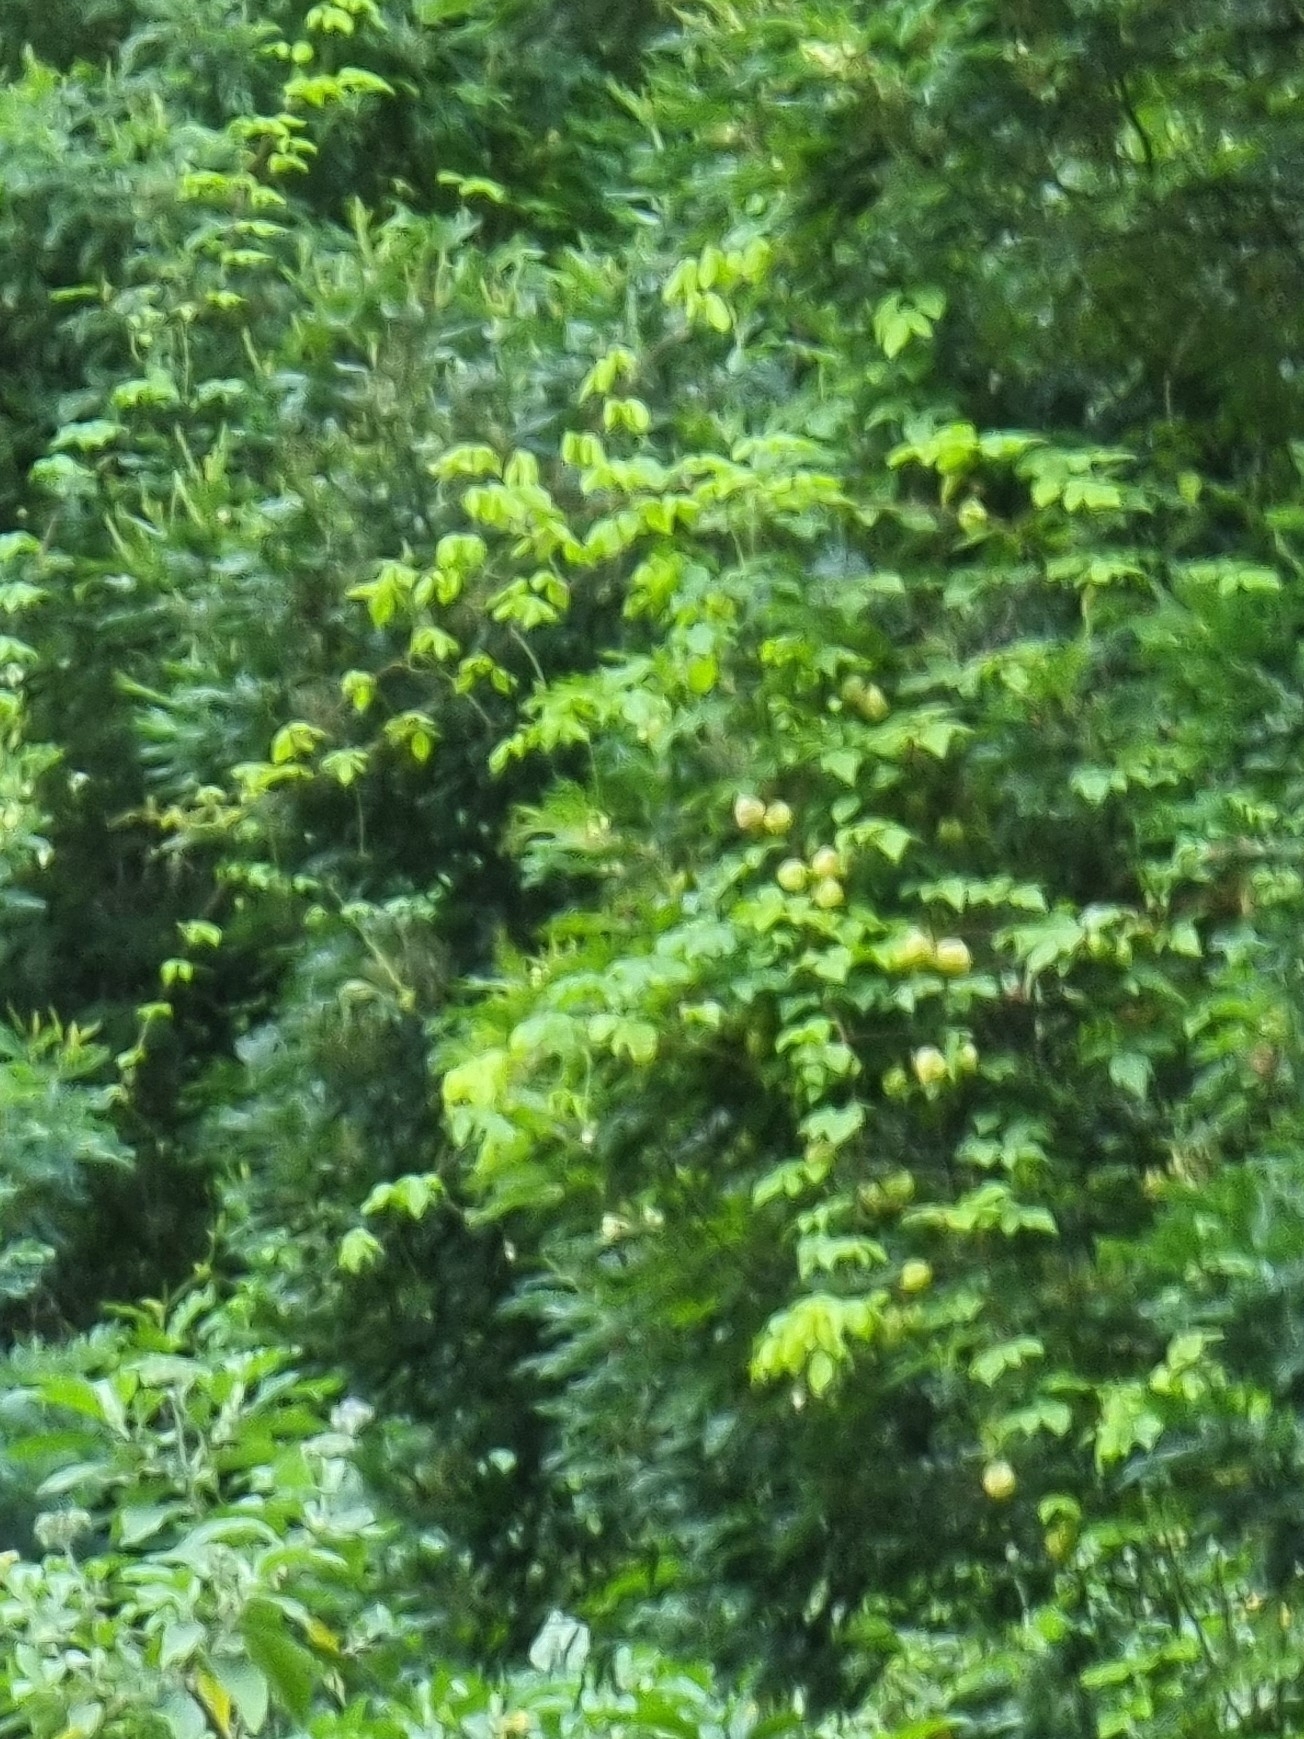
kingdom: Plantae
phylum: Tracheophyta
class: Magnoliopsida
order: Sapindales
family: Sapindaceae
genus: Cardiospermum
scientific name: Cardiospermum grandiflorum
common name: Balloon vine
